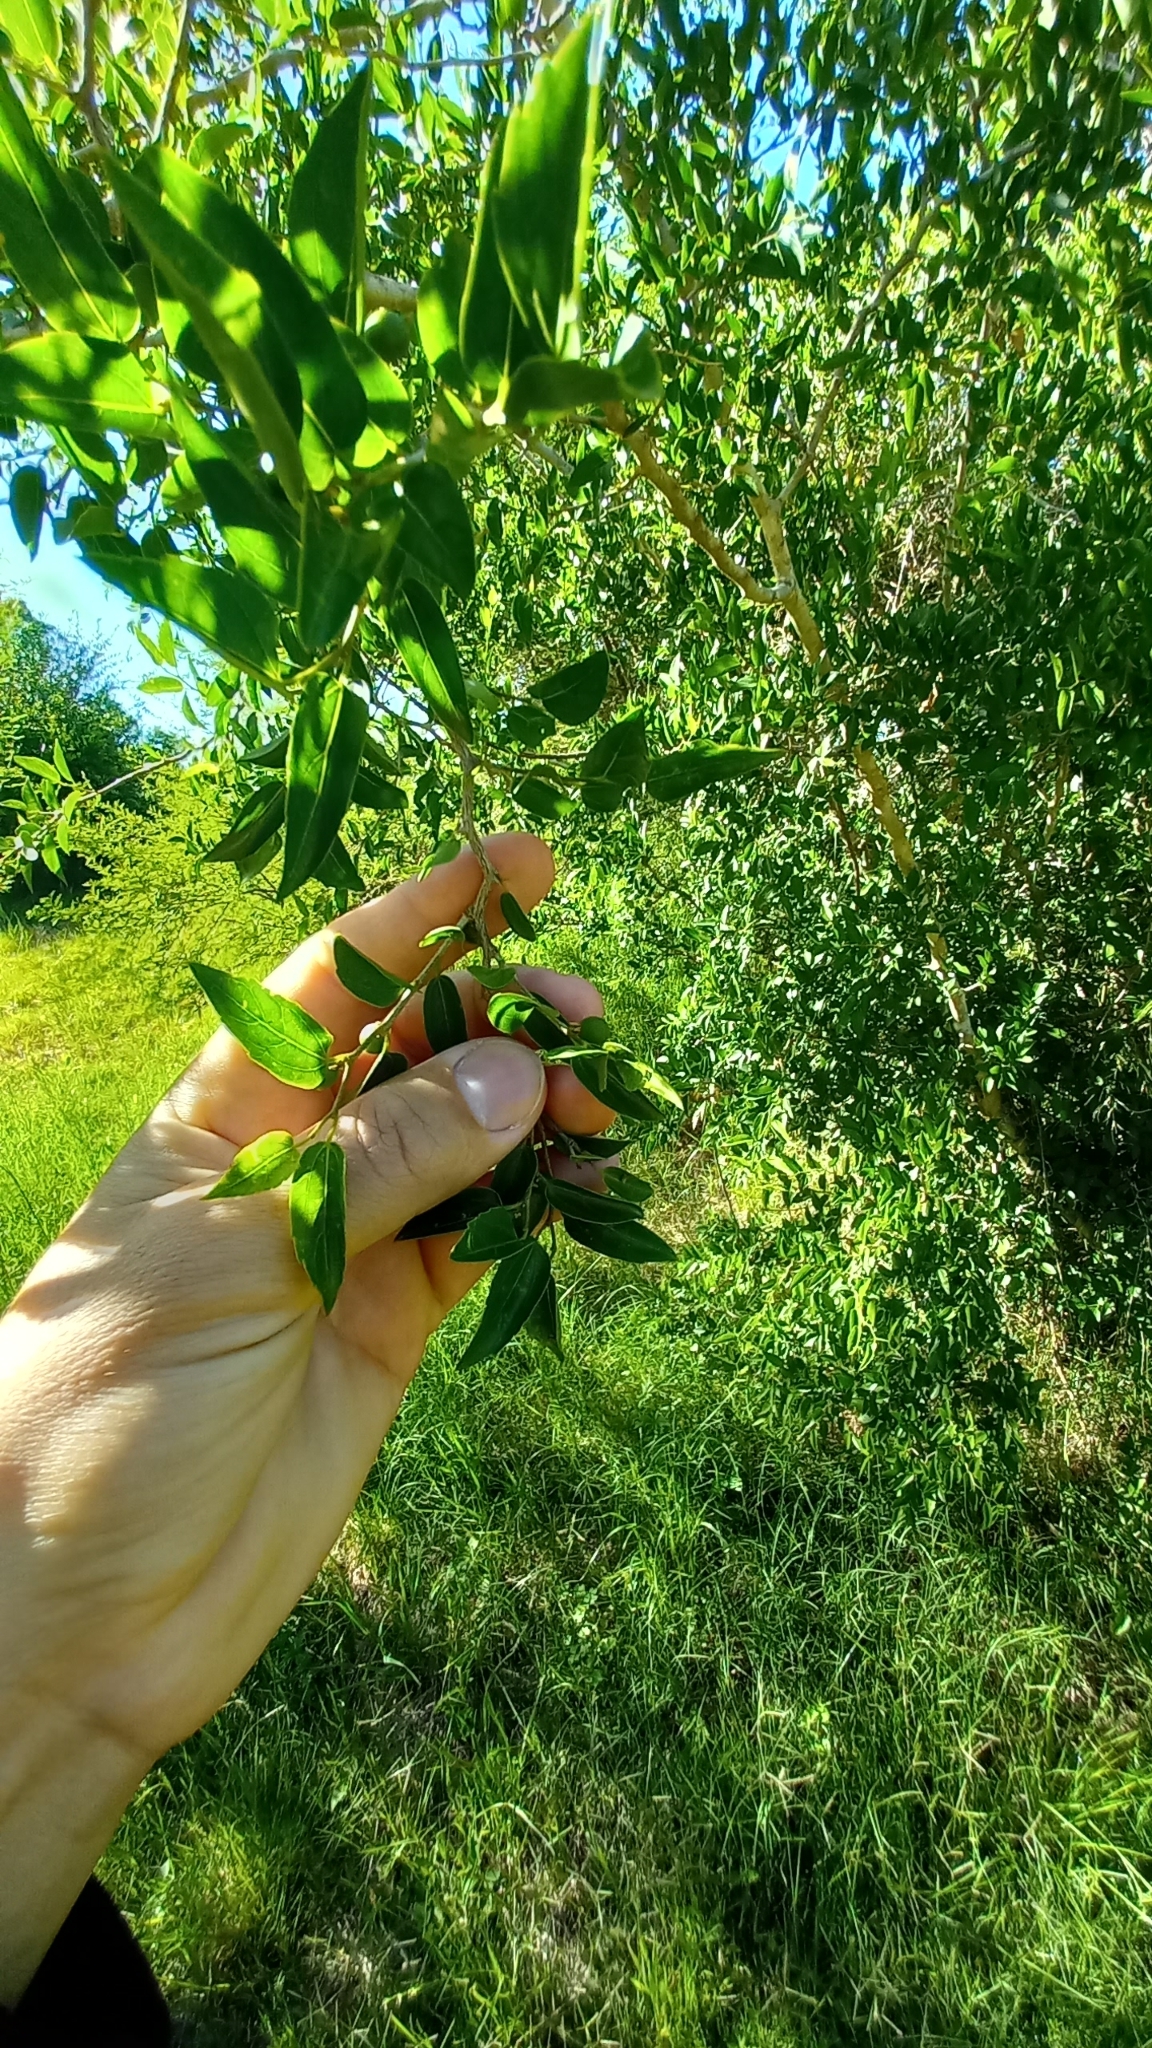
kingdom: Plantae
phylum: Tracheophyta
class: Magnoliopsida
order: Rosales
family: Cannabaceae
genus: Celtis
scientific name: Celtis tala
